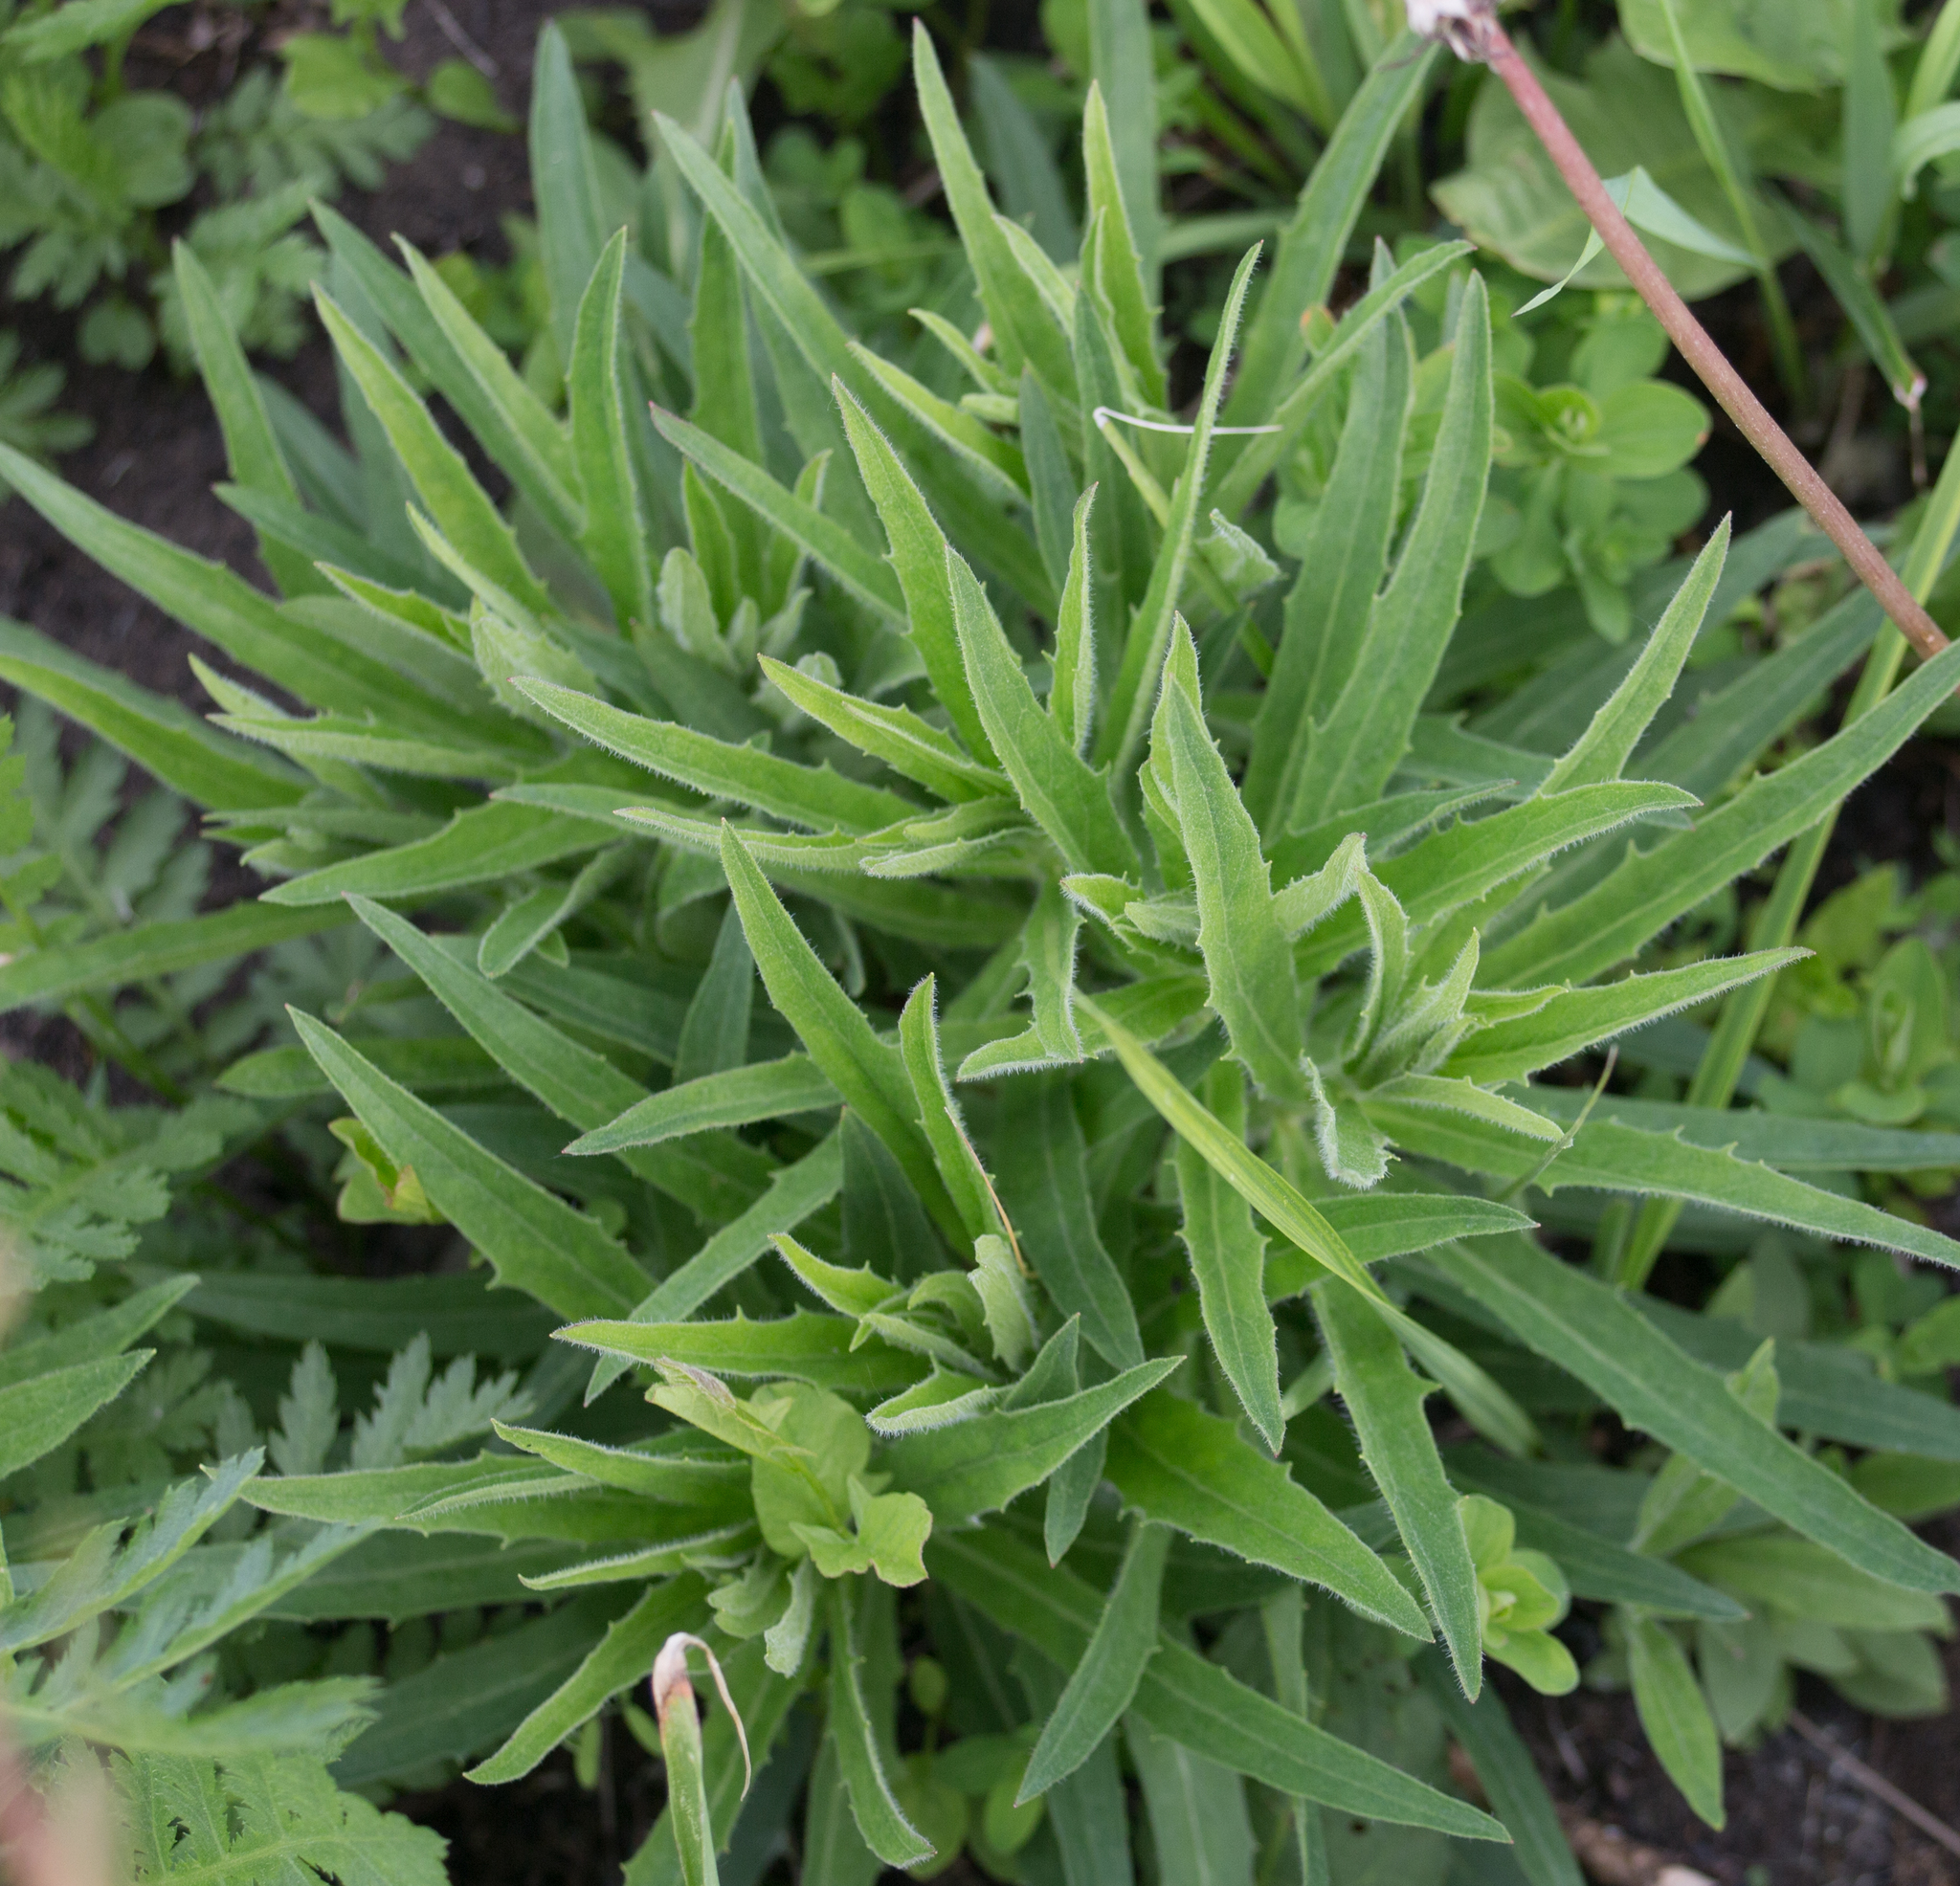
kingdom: Plantae
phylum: Tracheophyta
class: Magnoliopsida
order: Asterales
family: Asteraceae
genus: Hieracium
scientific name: Hieracium umbellatum
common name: Northern hawkweed
